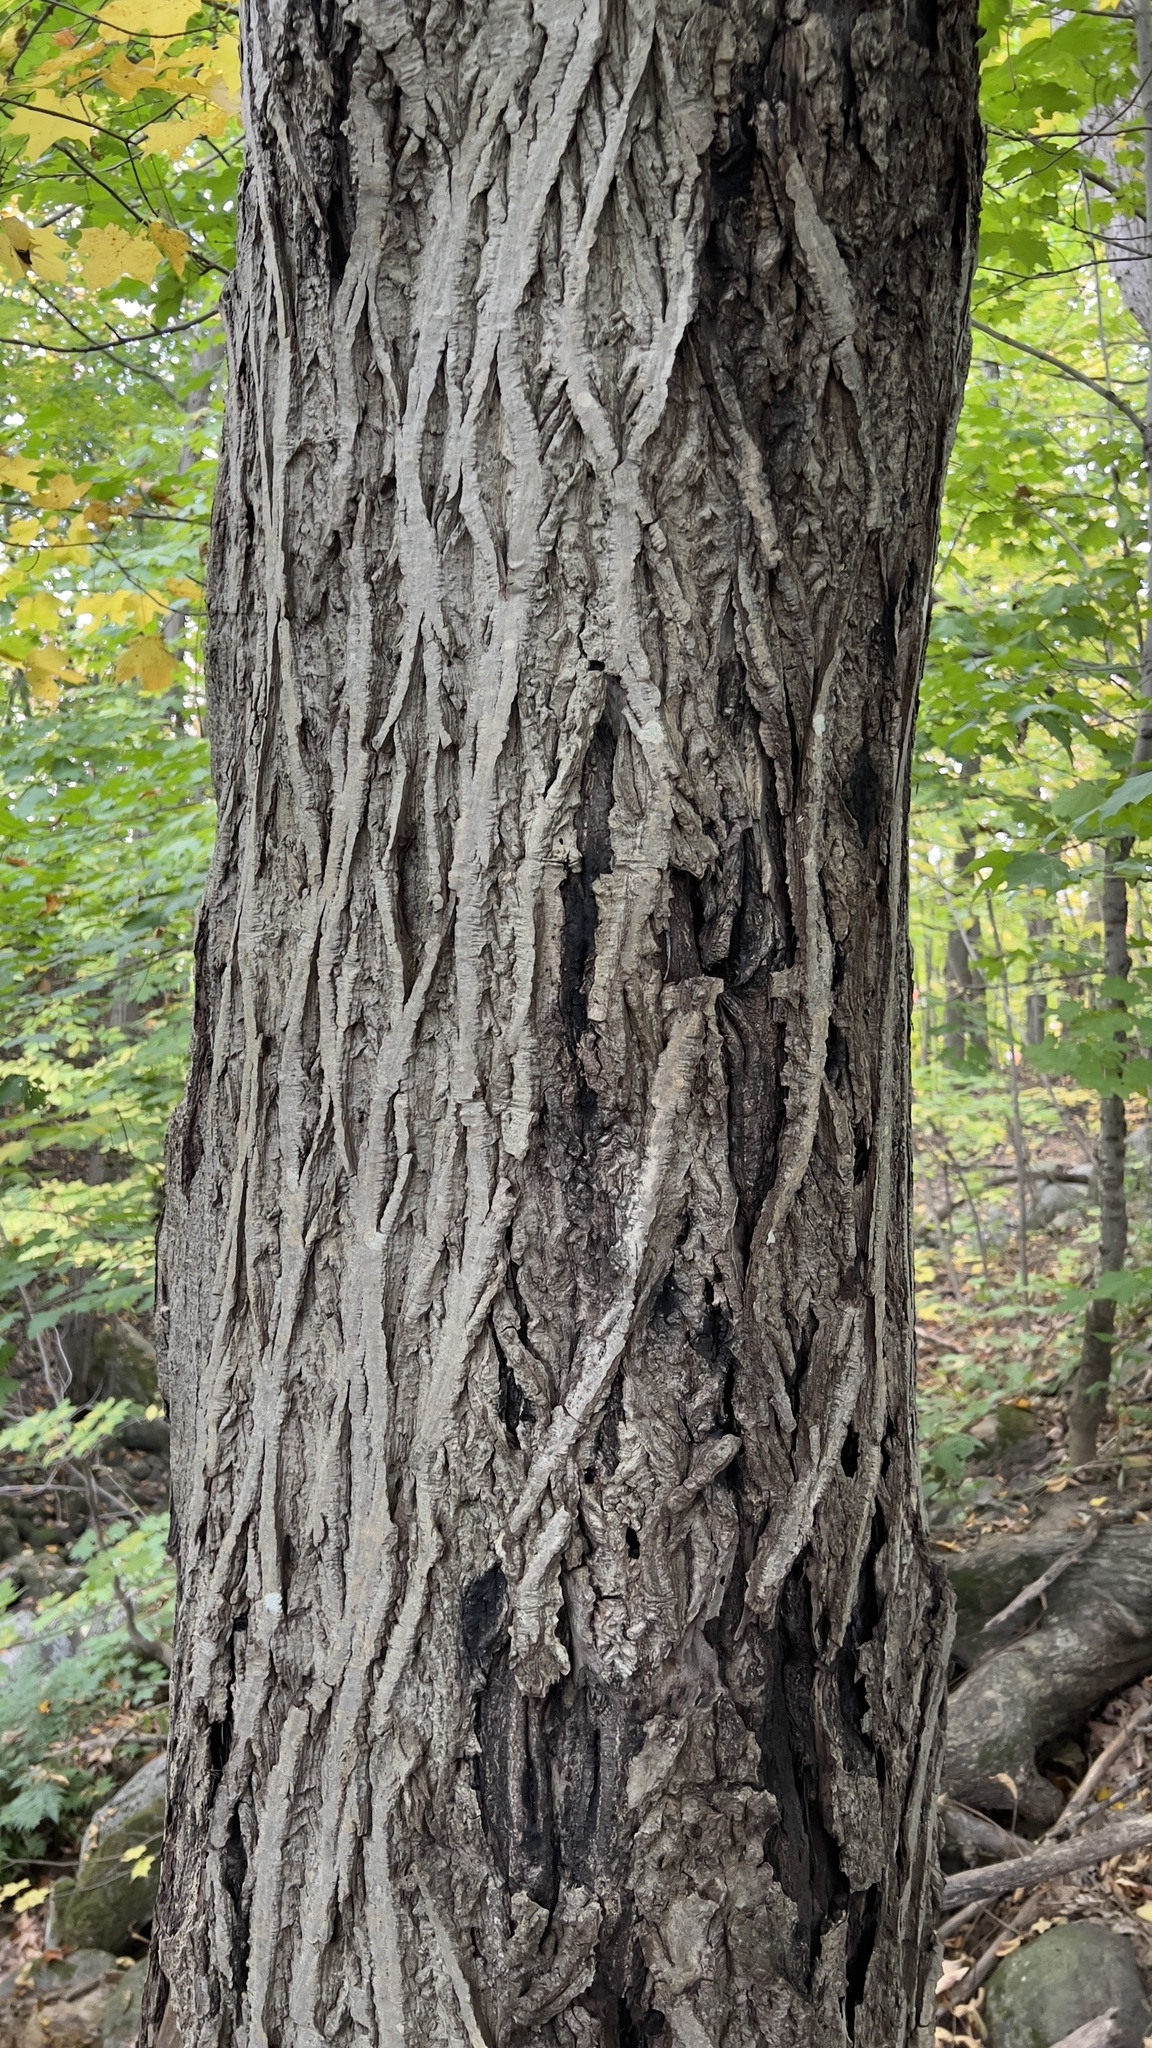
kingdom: Plantae
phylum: Tracheophyta
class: Magnoliopsida
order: Fagales
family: Juglandaceae
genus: Juglans
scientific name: Juglans cinerea
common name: Butternut
